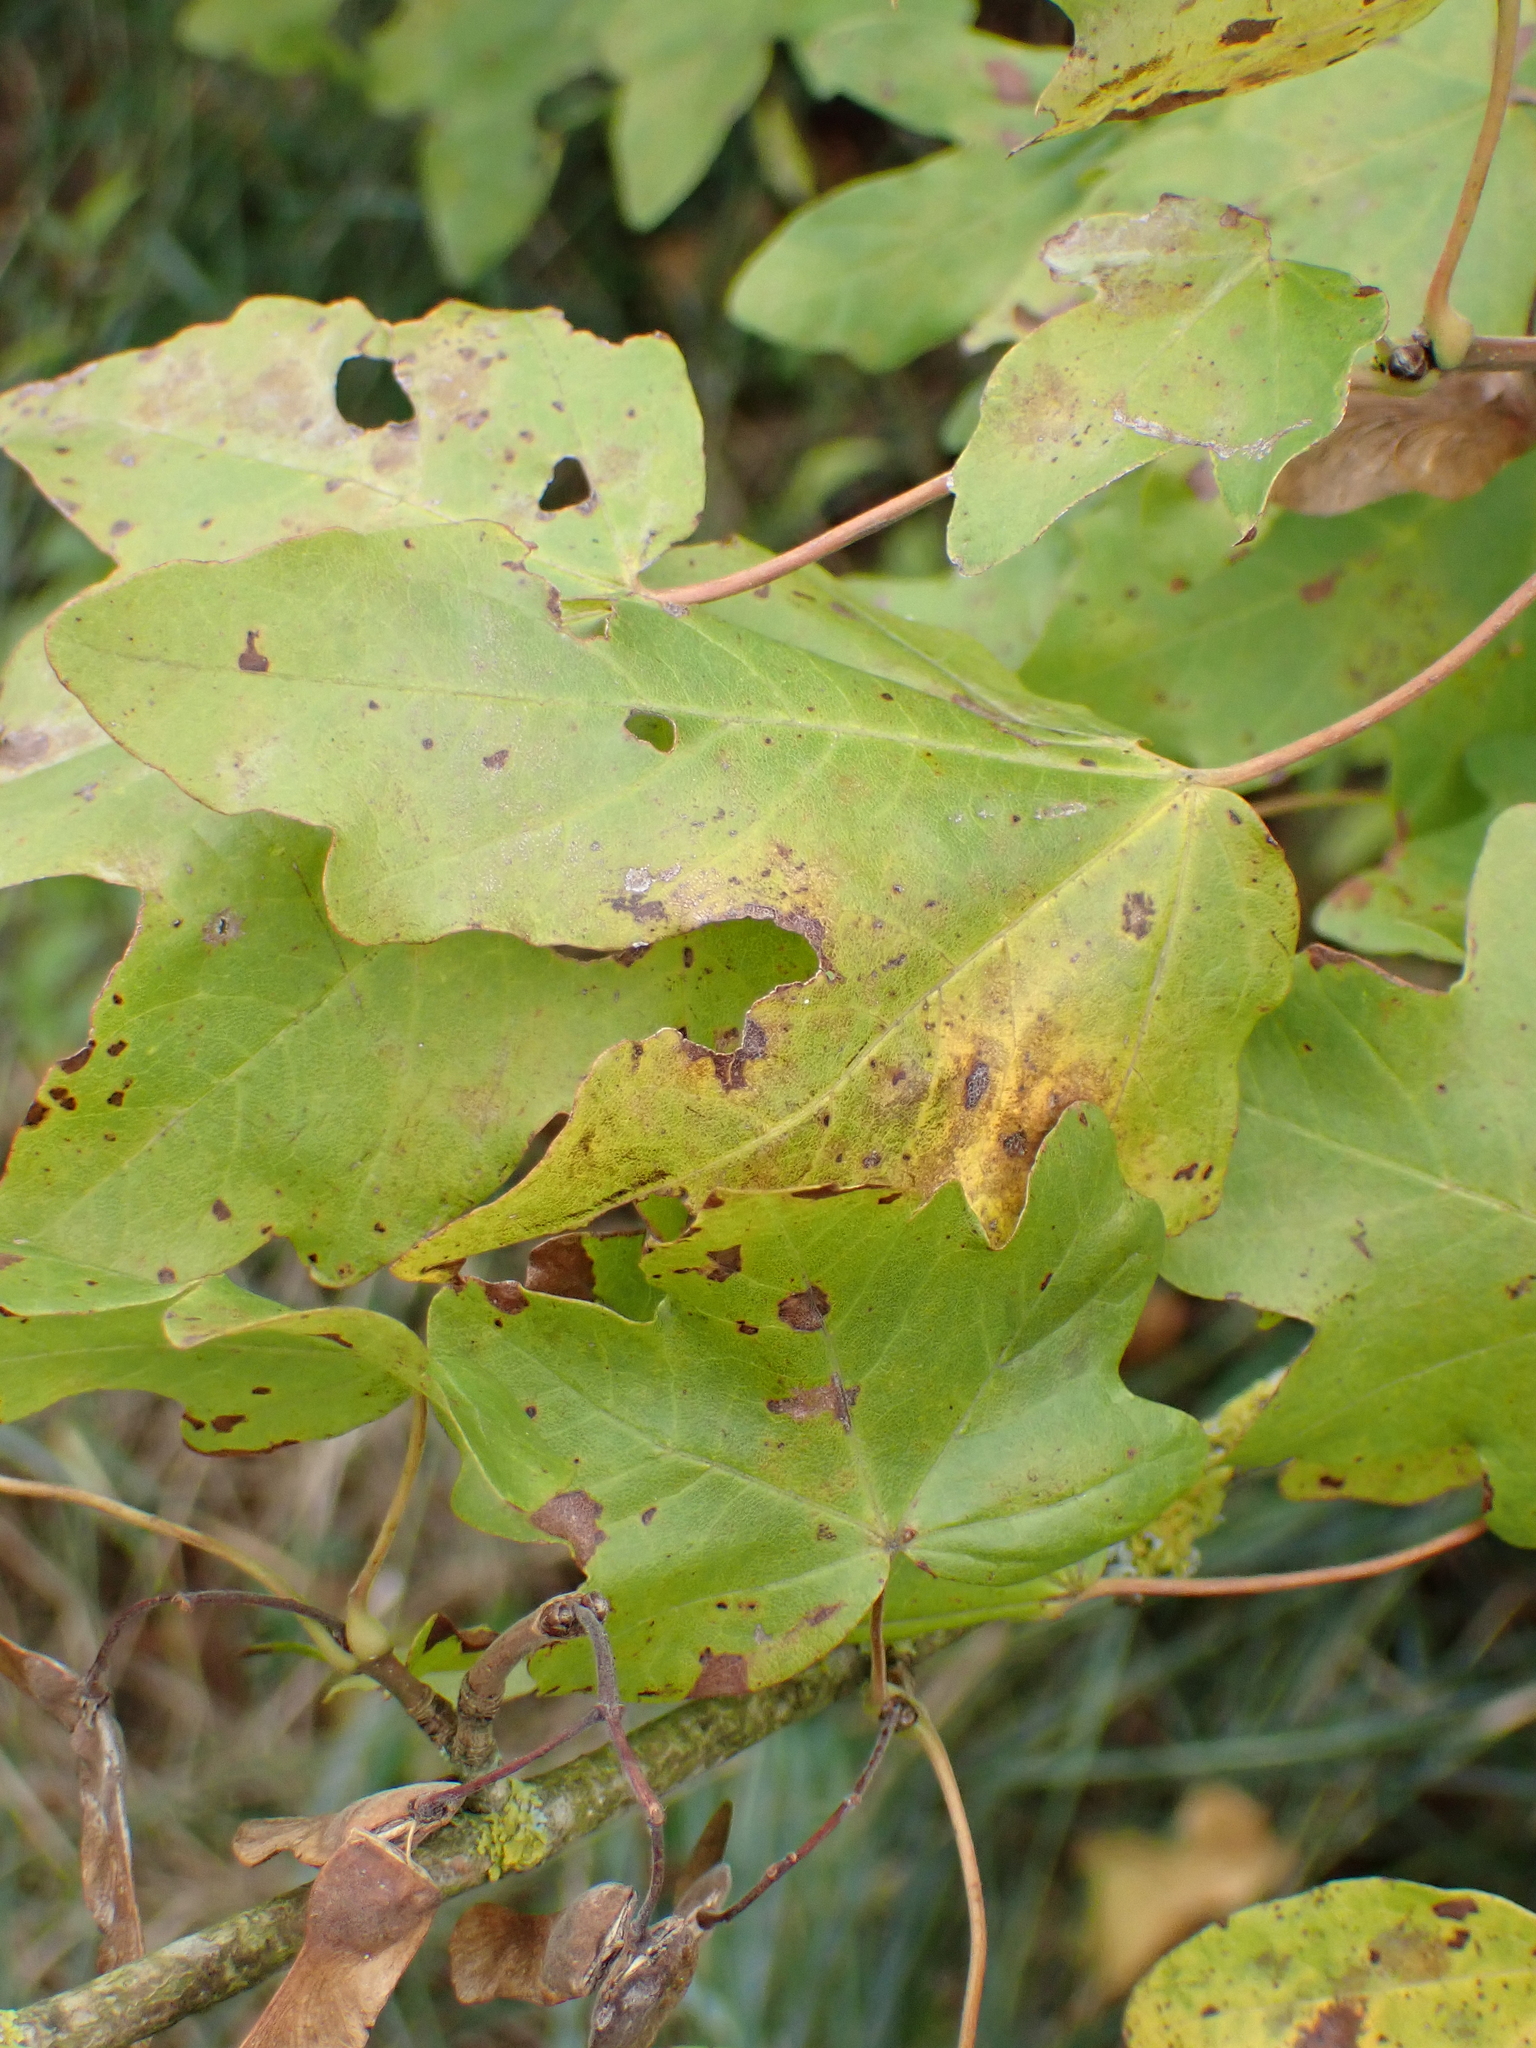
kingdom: Plantae
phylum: Tracheophyta
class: Magnoliopsida
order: Sapindales
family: Sapindaceae
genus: Acer
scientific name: Acer campestre
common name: Field maple
